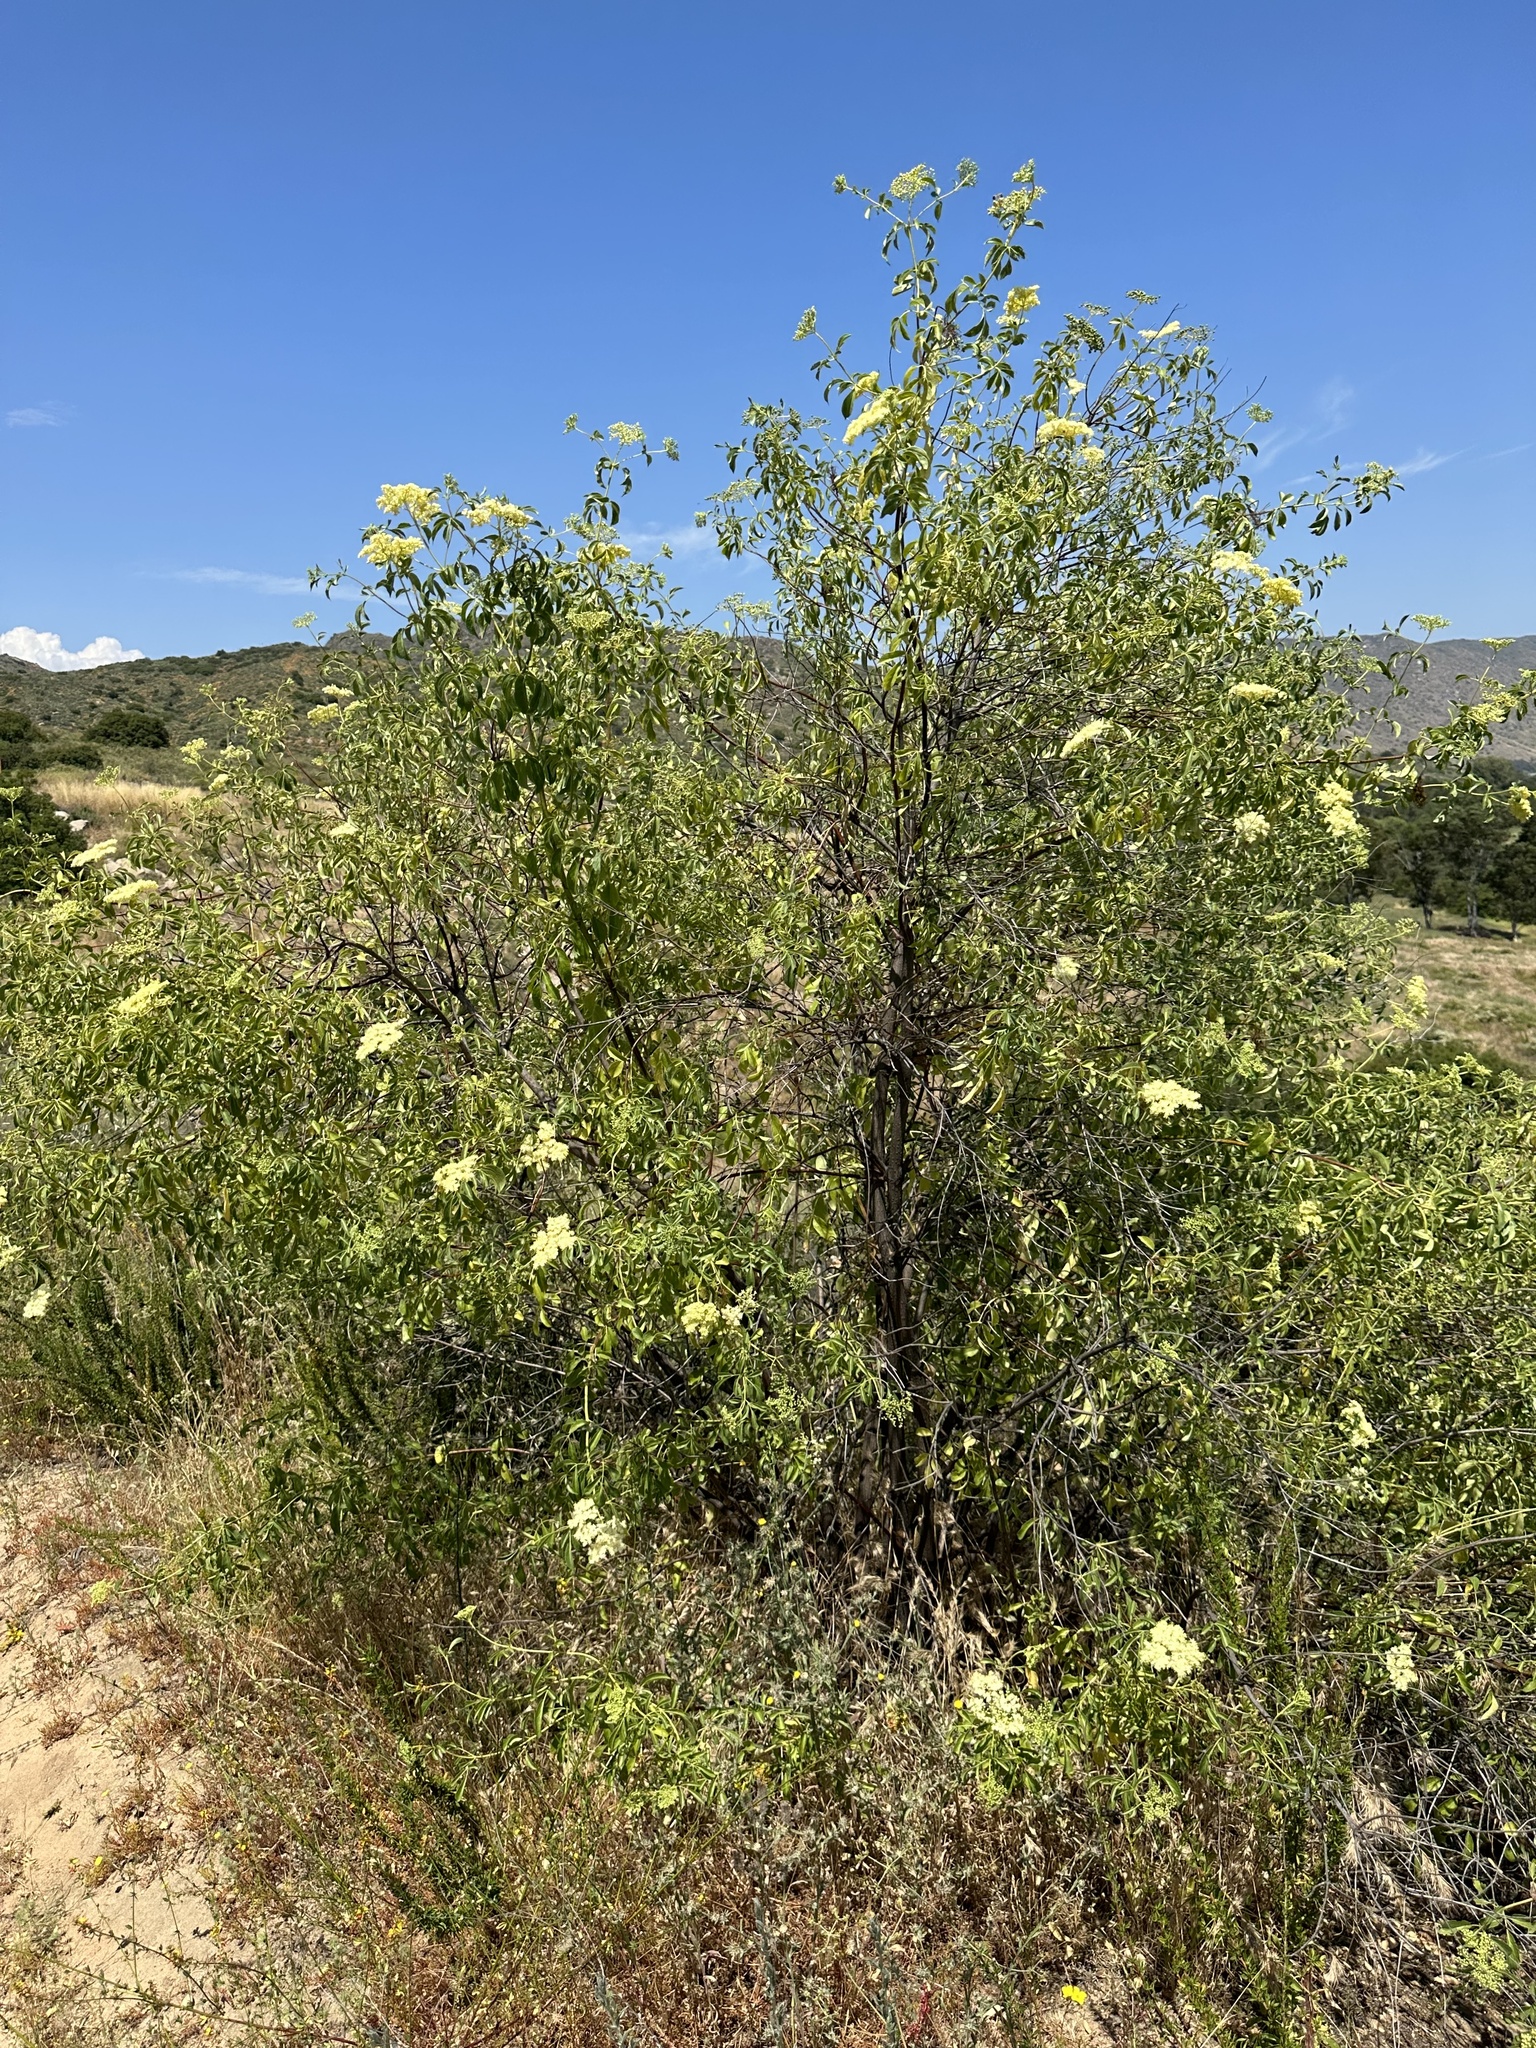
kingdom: Plantae
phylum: Tracheophyta
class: Magnoliopsida
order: Dipsacales
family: Viburnaceae
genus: Sambucus
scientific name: Sambucus cerulea
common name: Blue elder
